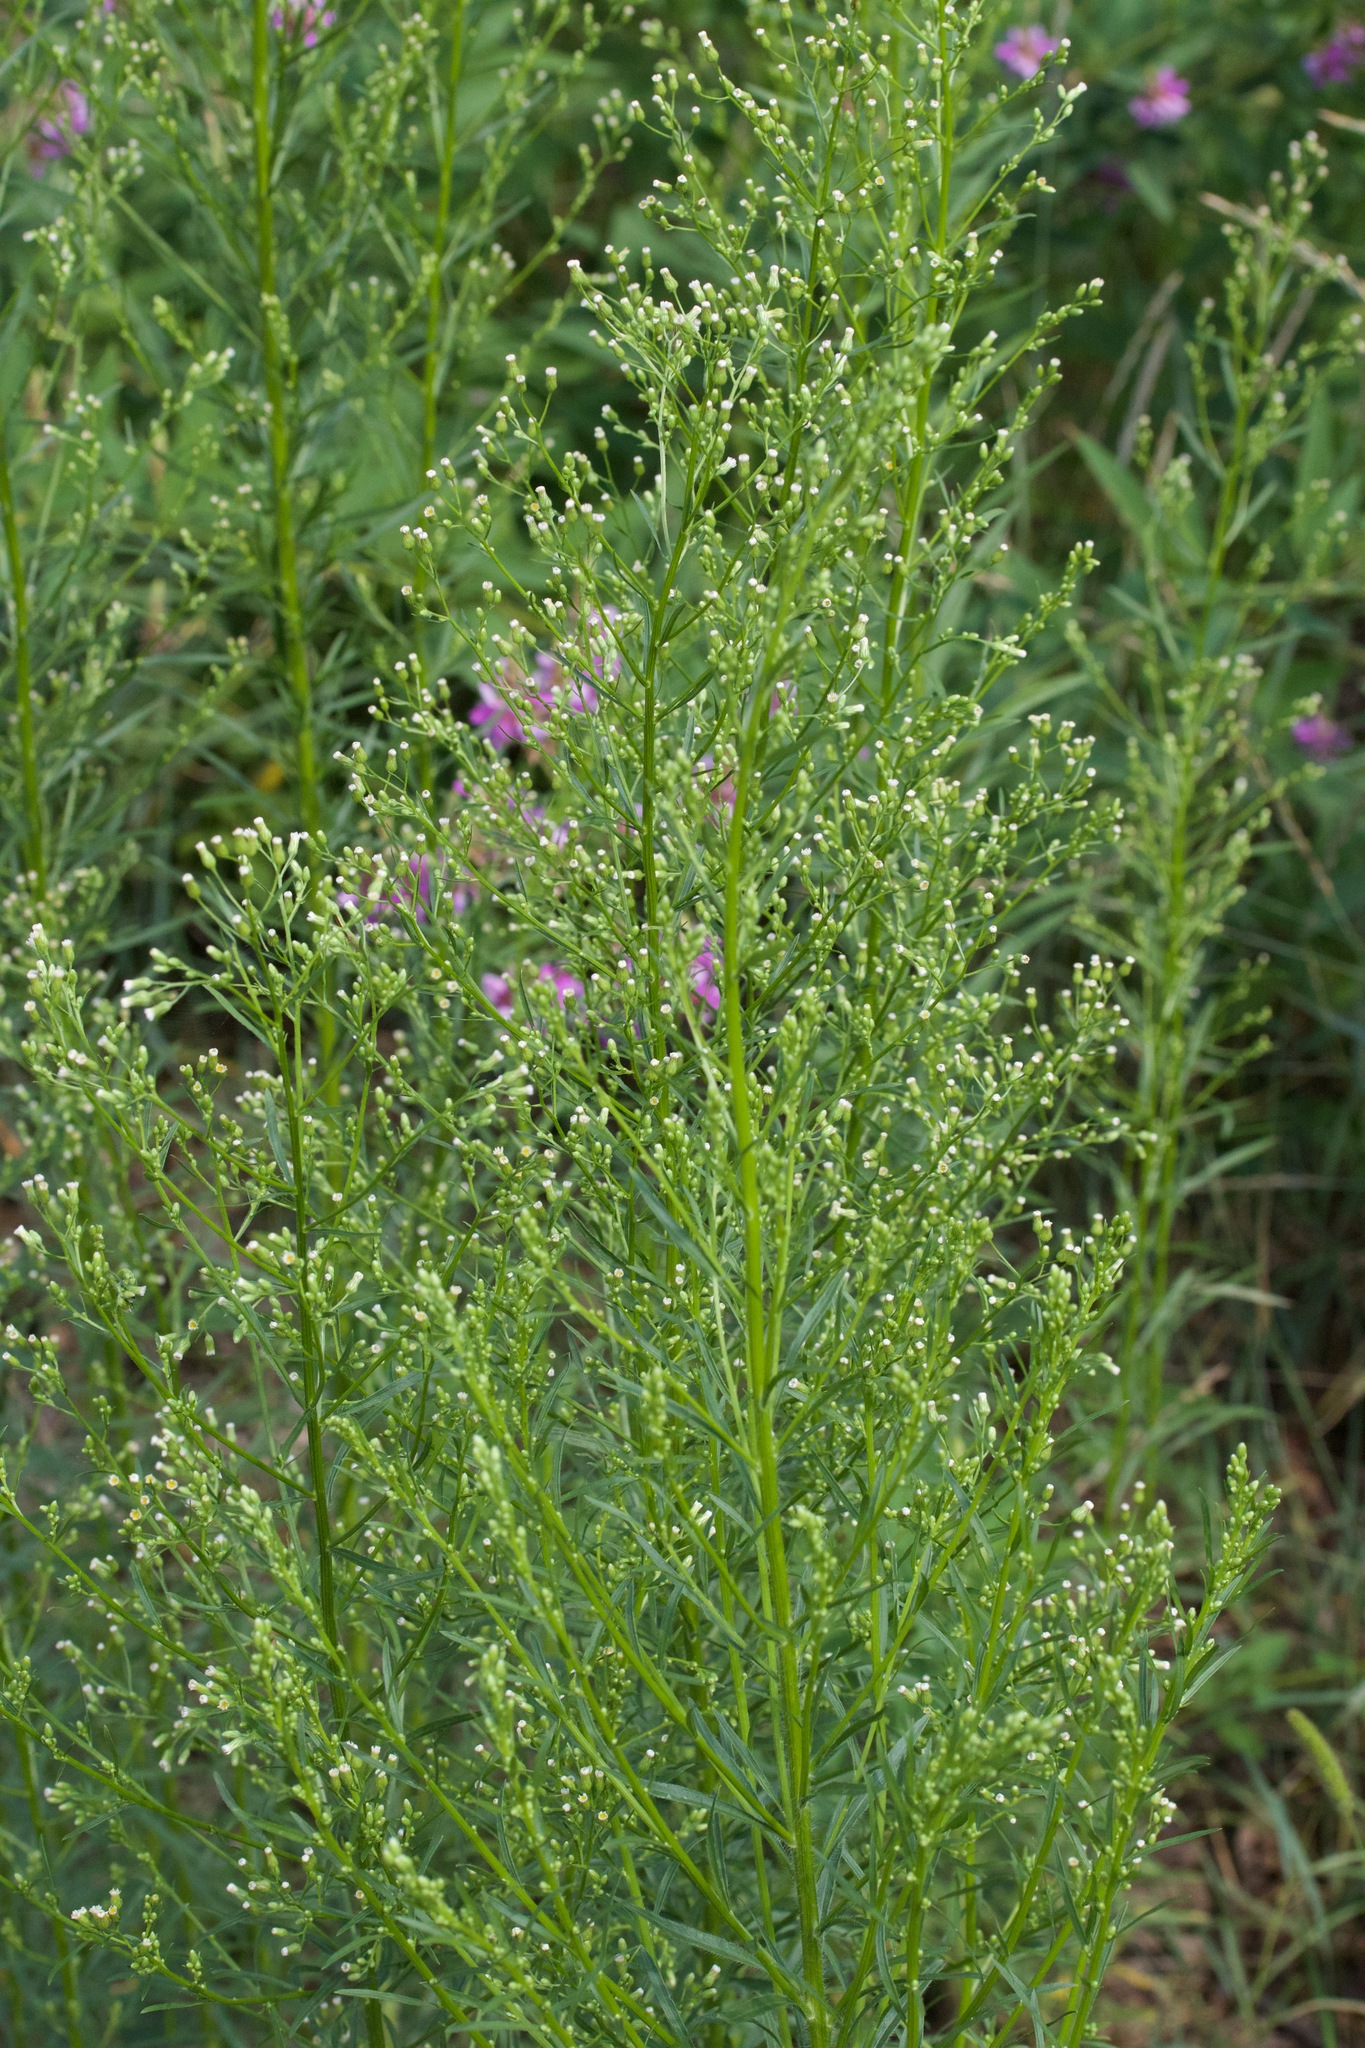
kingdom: Plantae
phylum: Tracheophyta
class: Magnoliopsida
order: Asterales
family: Asteraceae
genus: Erigeron
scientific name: Erigeron canadensis
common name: Canadian fleabane
